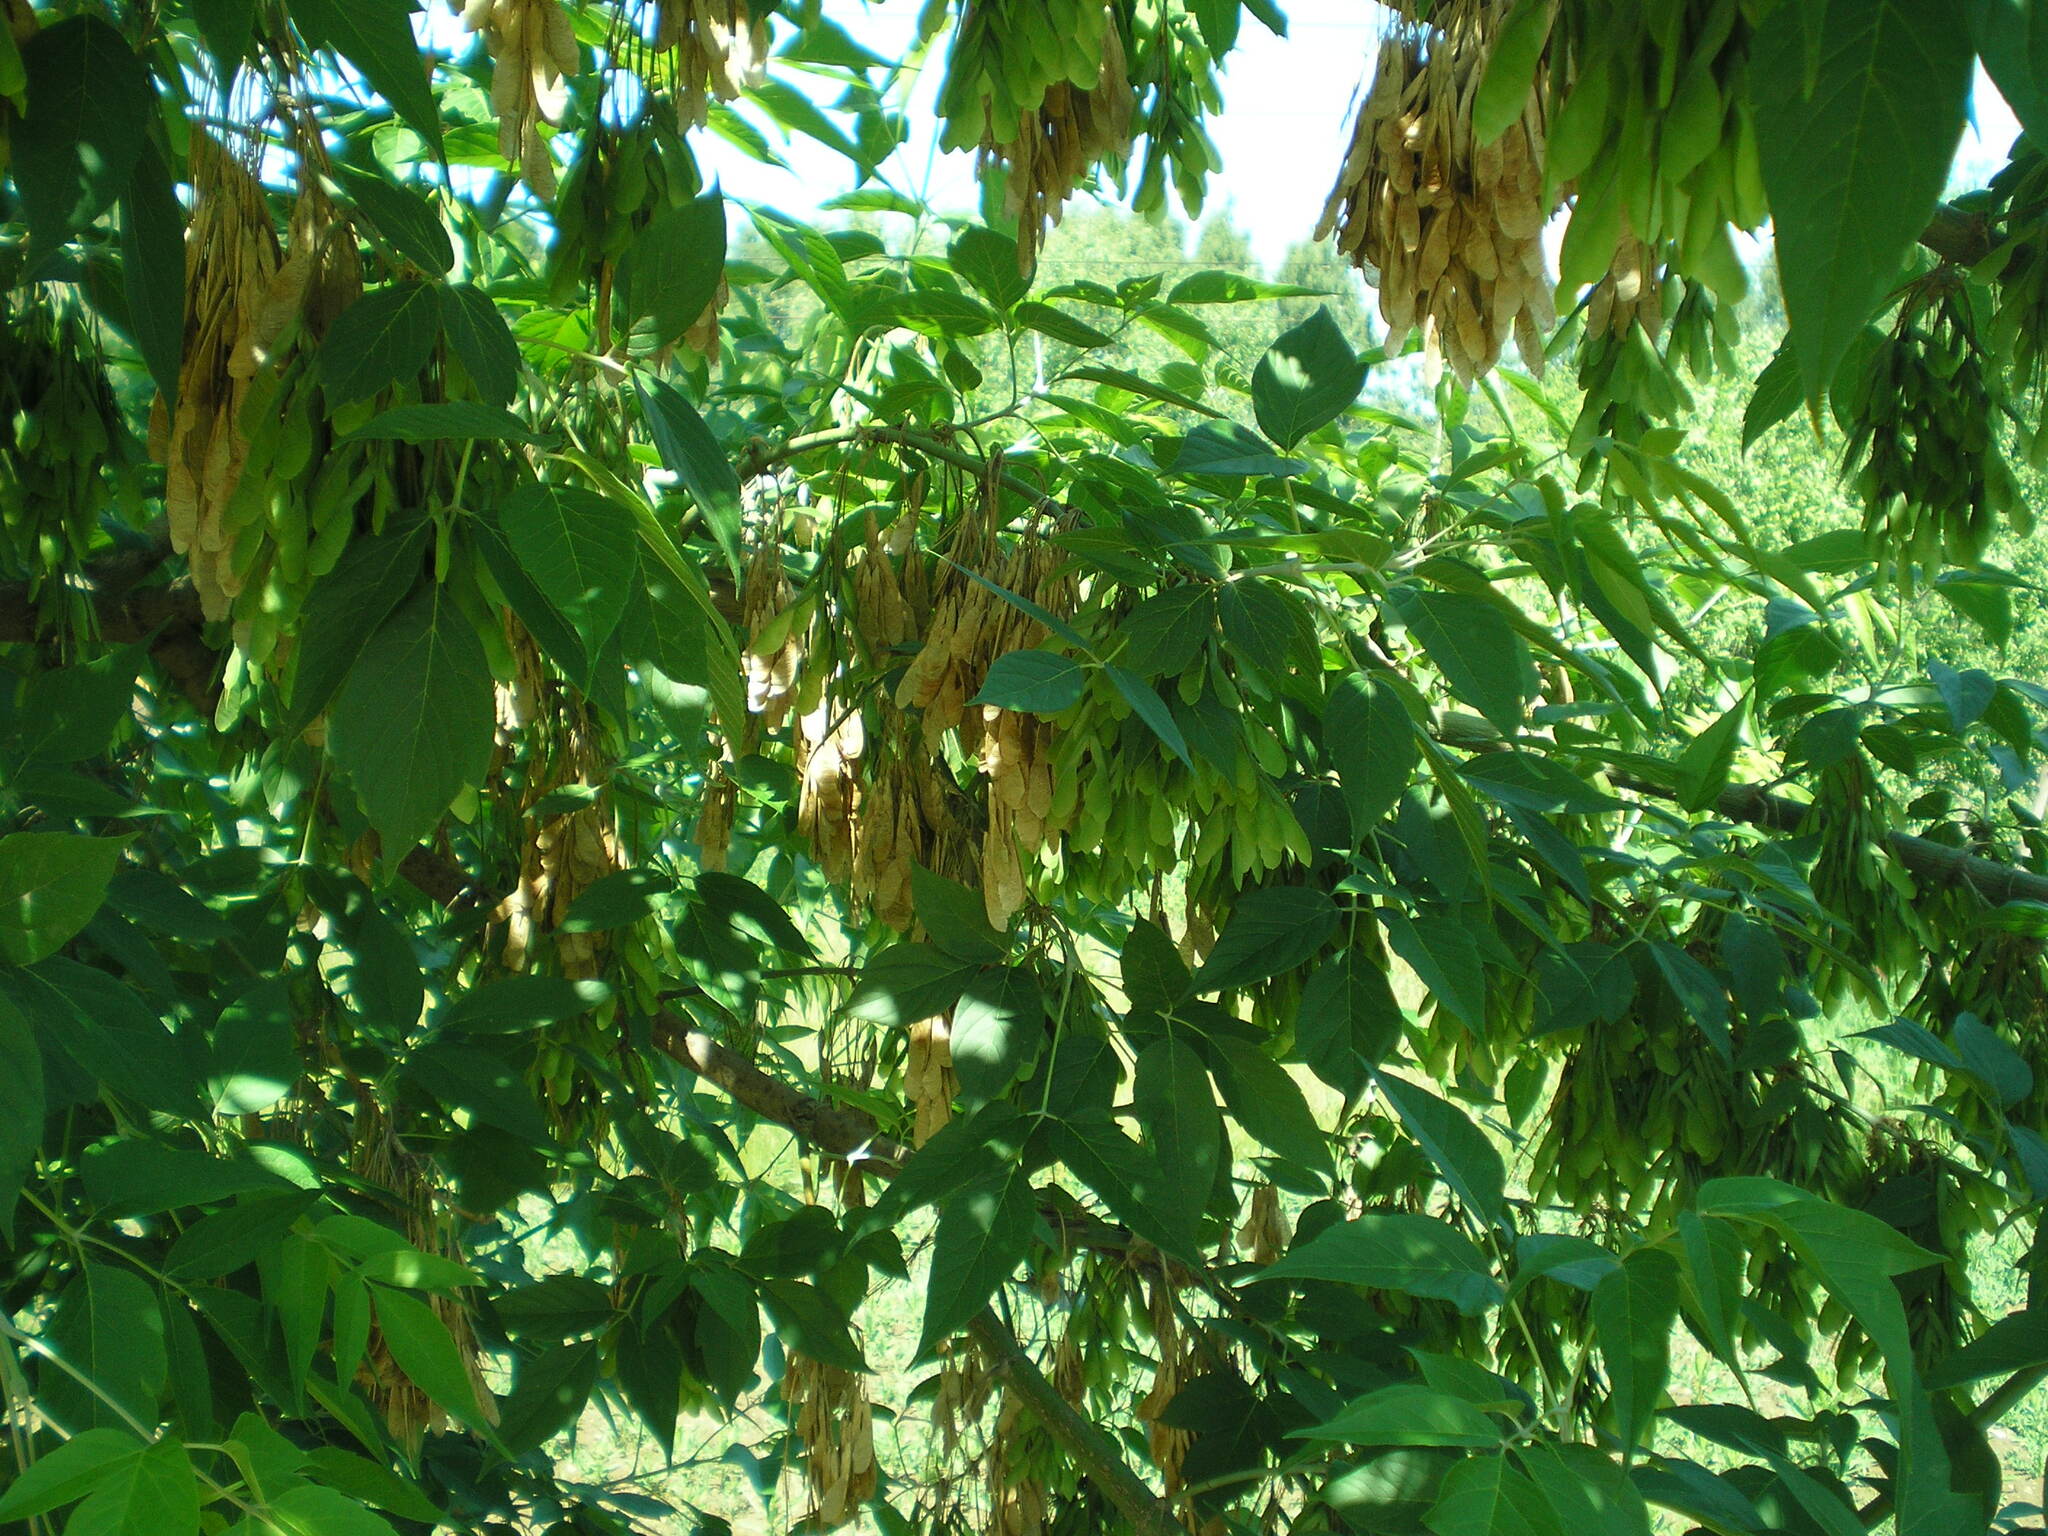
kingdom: Plantae
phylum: Tracheophyta
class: Magnoliopsida
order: Sapindales
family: Sapindaceae
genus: Acer
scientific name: Acer negundo
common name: Ashleaf maple
